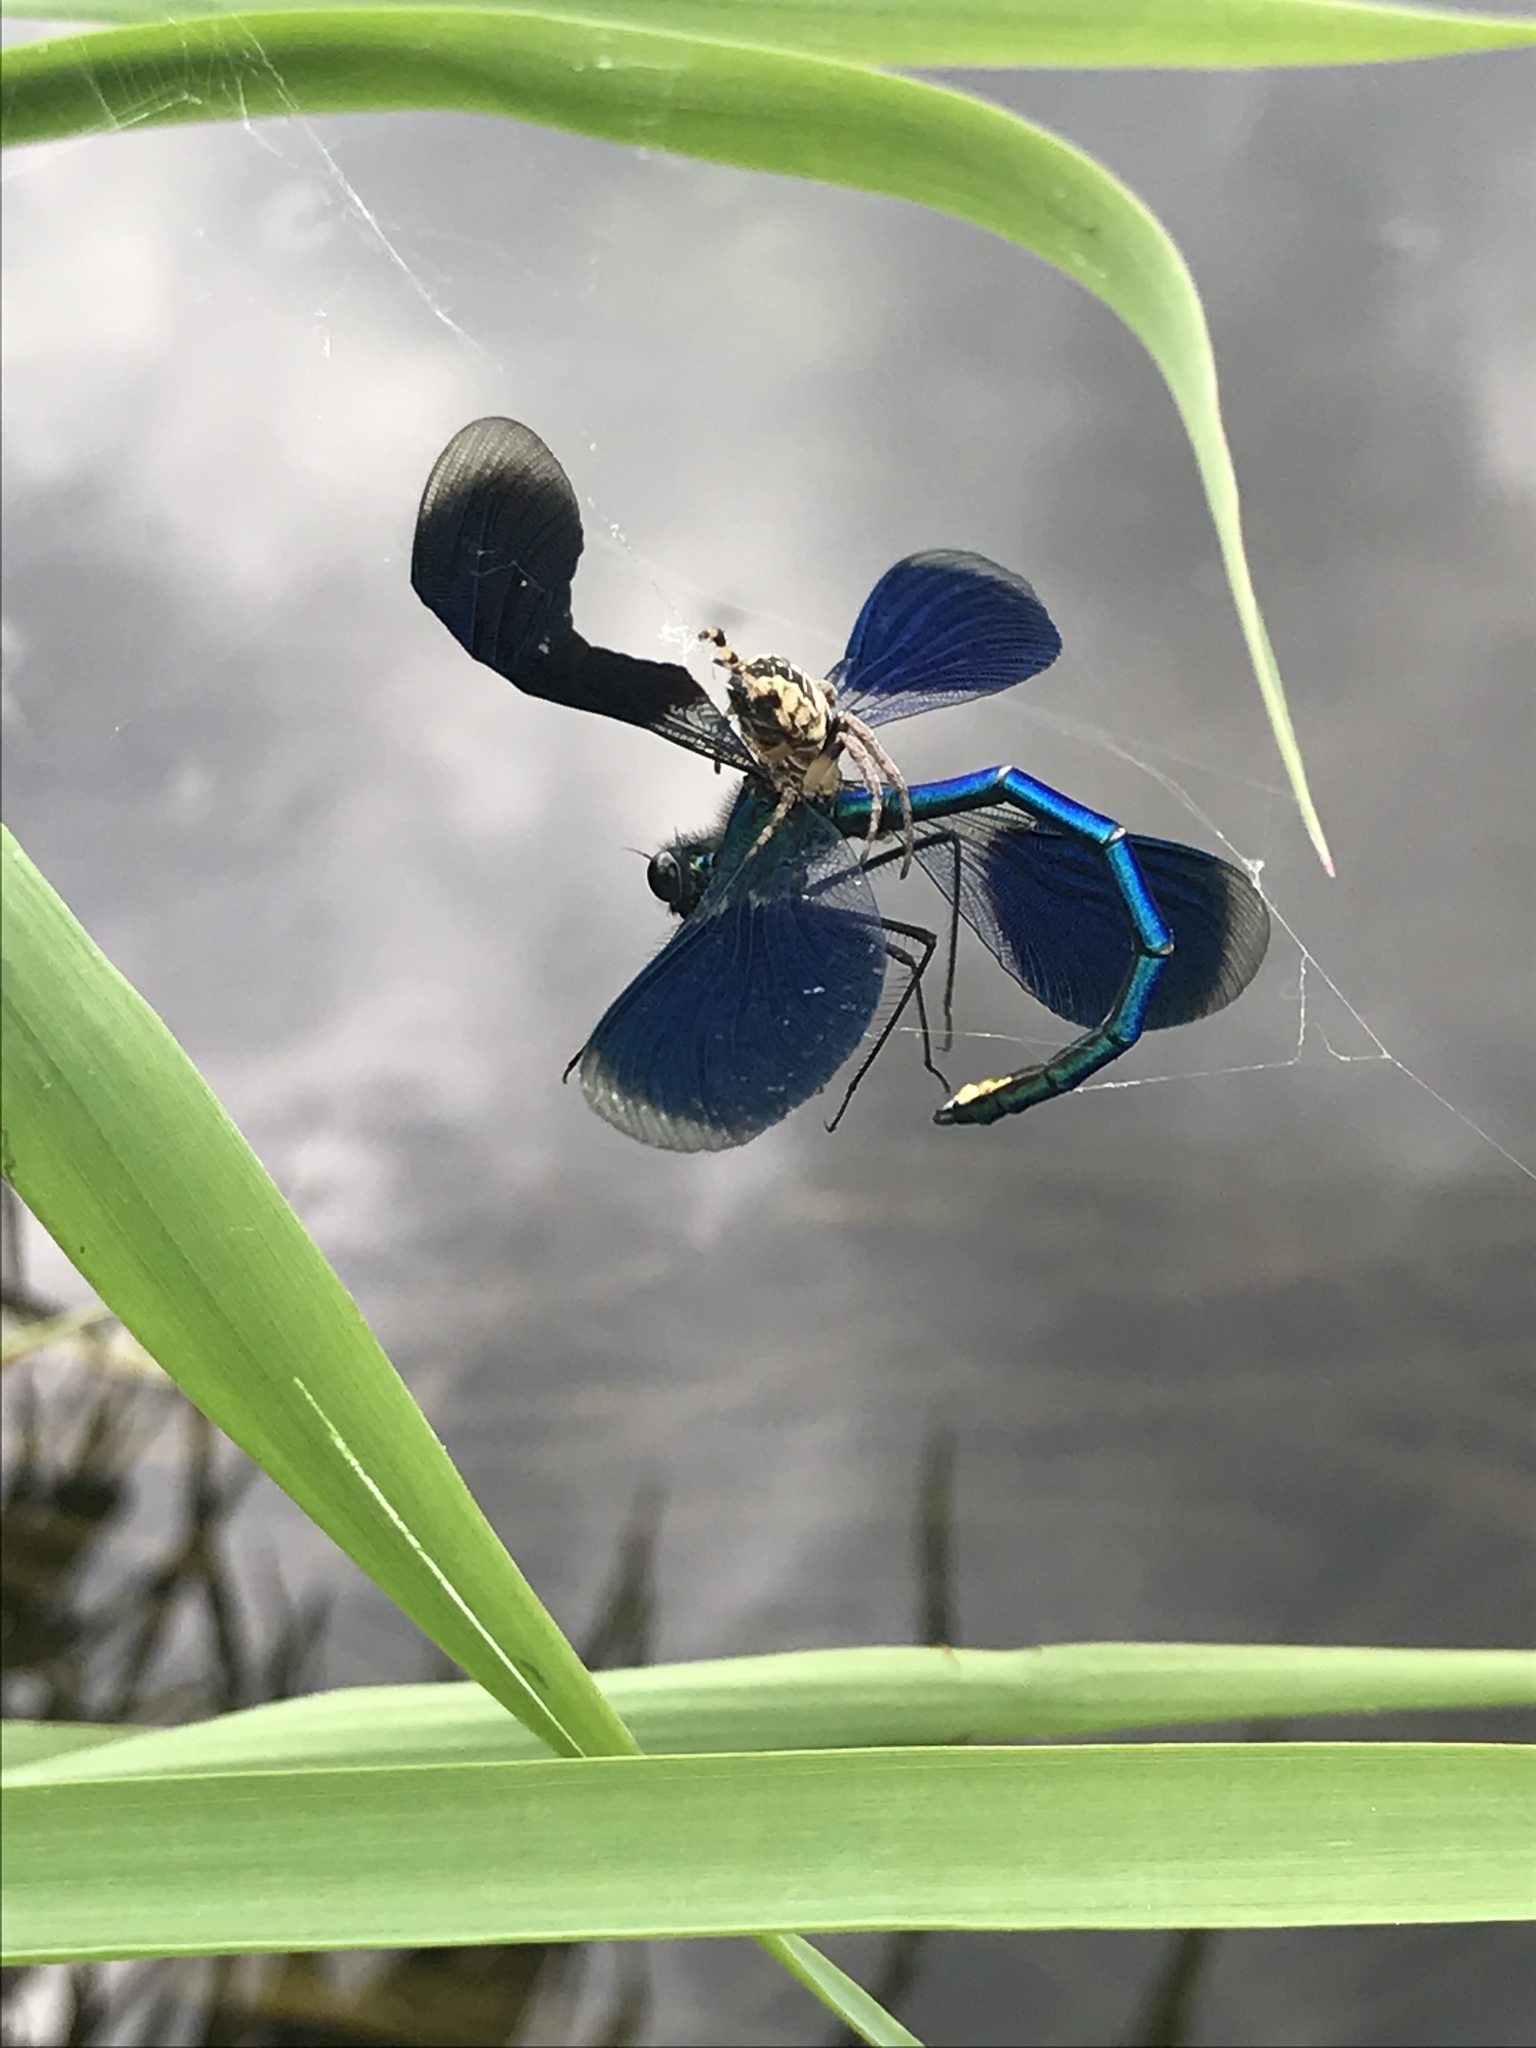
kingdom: Animalia
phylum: Arthropoda
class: Insecta
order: Odonata
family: Calopterygidae
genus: Calopteryx
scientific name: Calopteryx splendens
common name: Banded demoiselle
